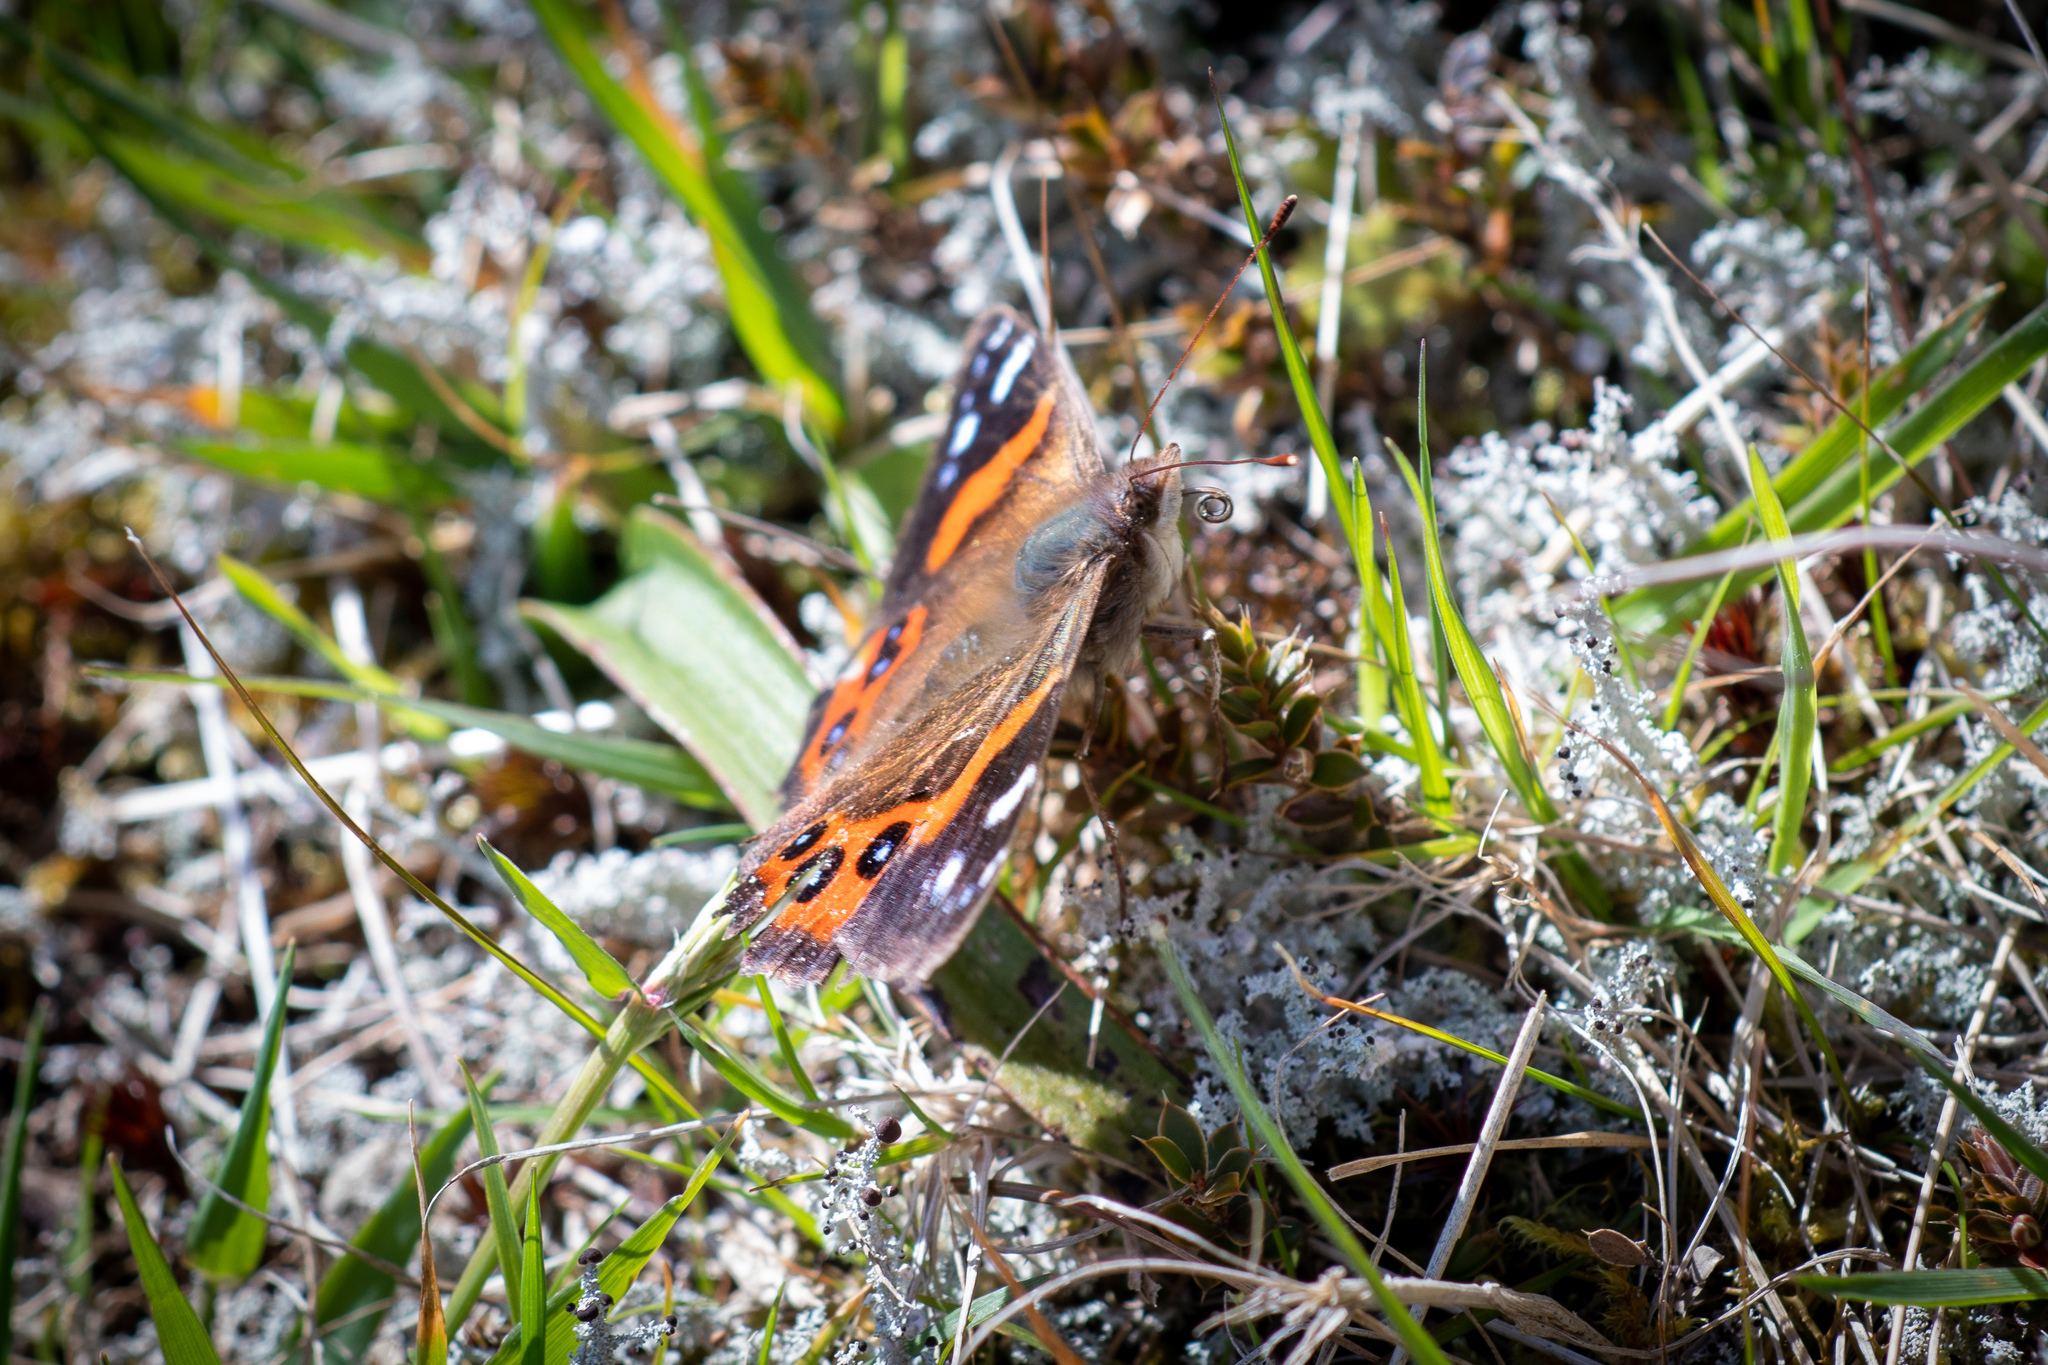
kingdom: Animalia
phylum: Arthropoda
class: Insecta
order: Lepidoptera
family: Nymphalidae
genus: Vanessa
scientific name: Vanessa gonerilla
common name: New zealand red admiral
